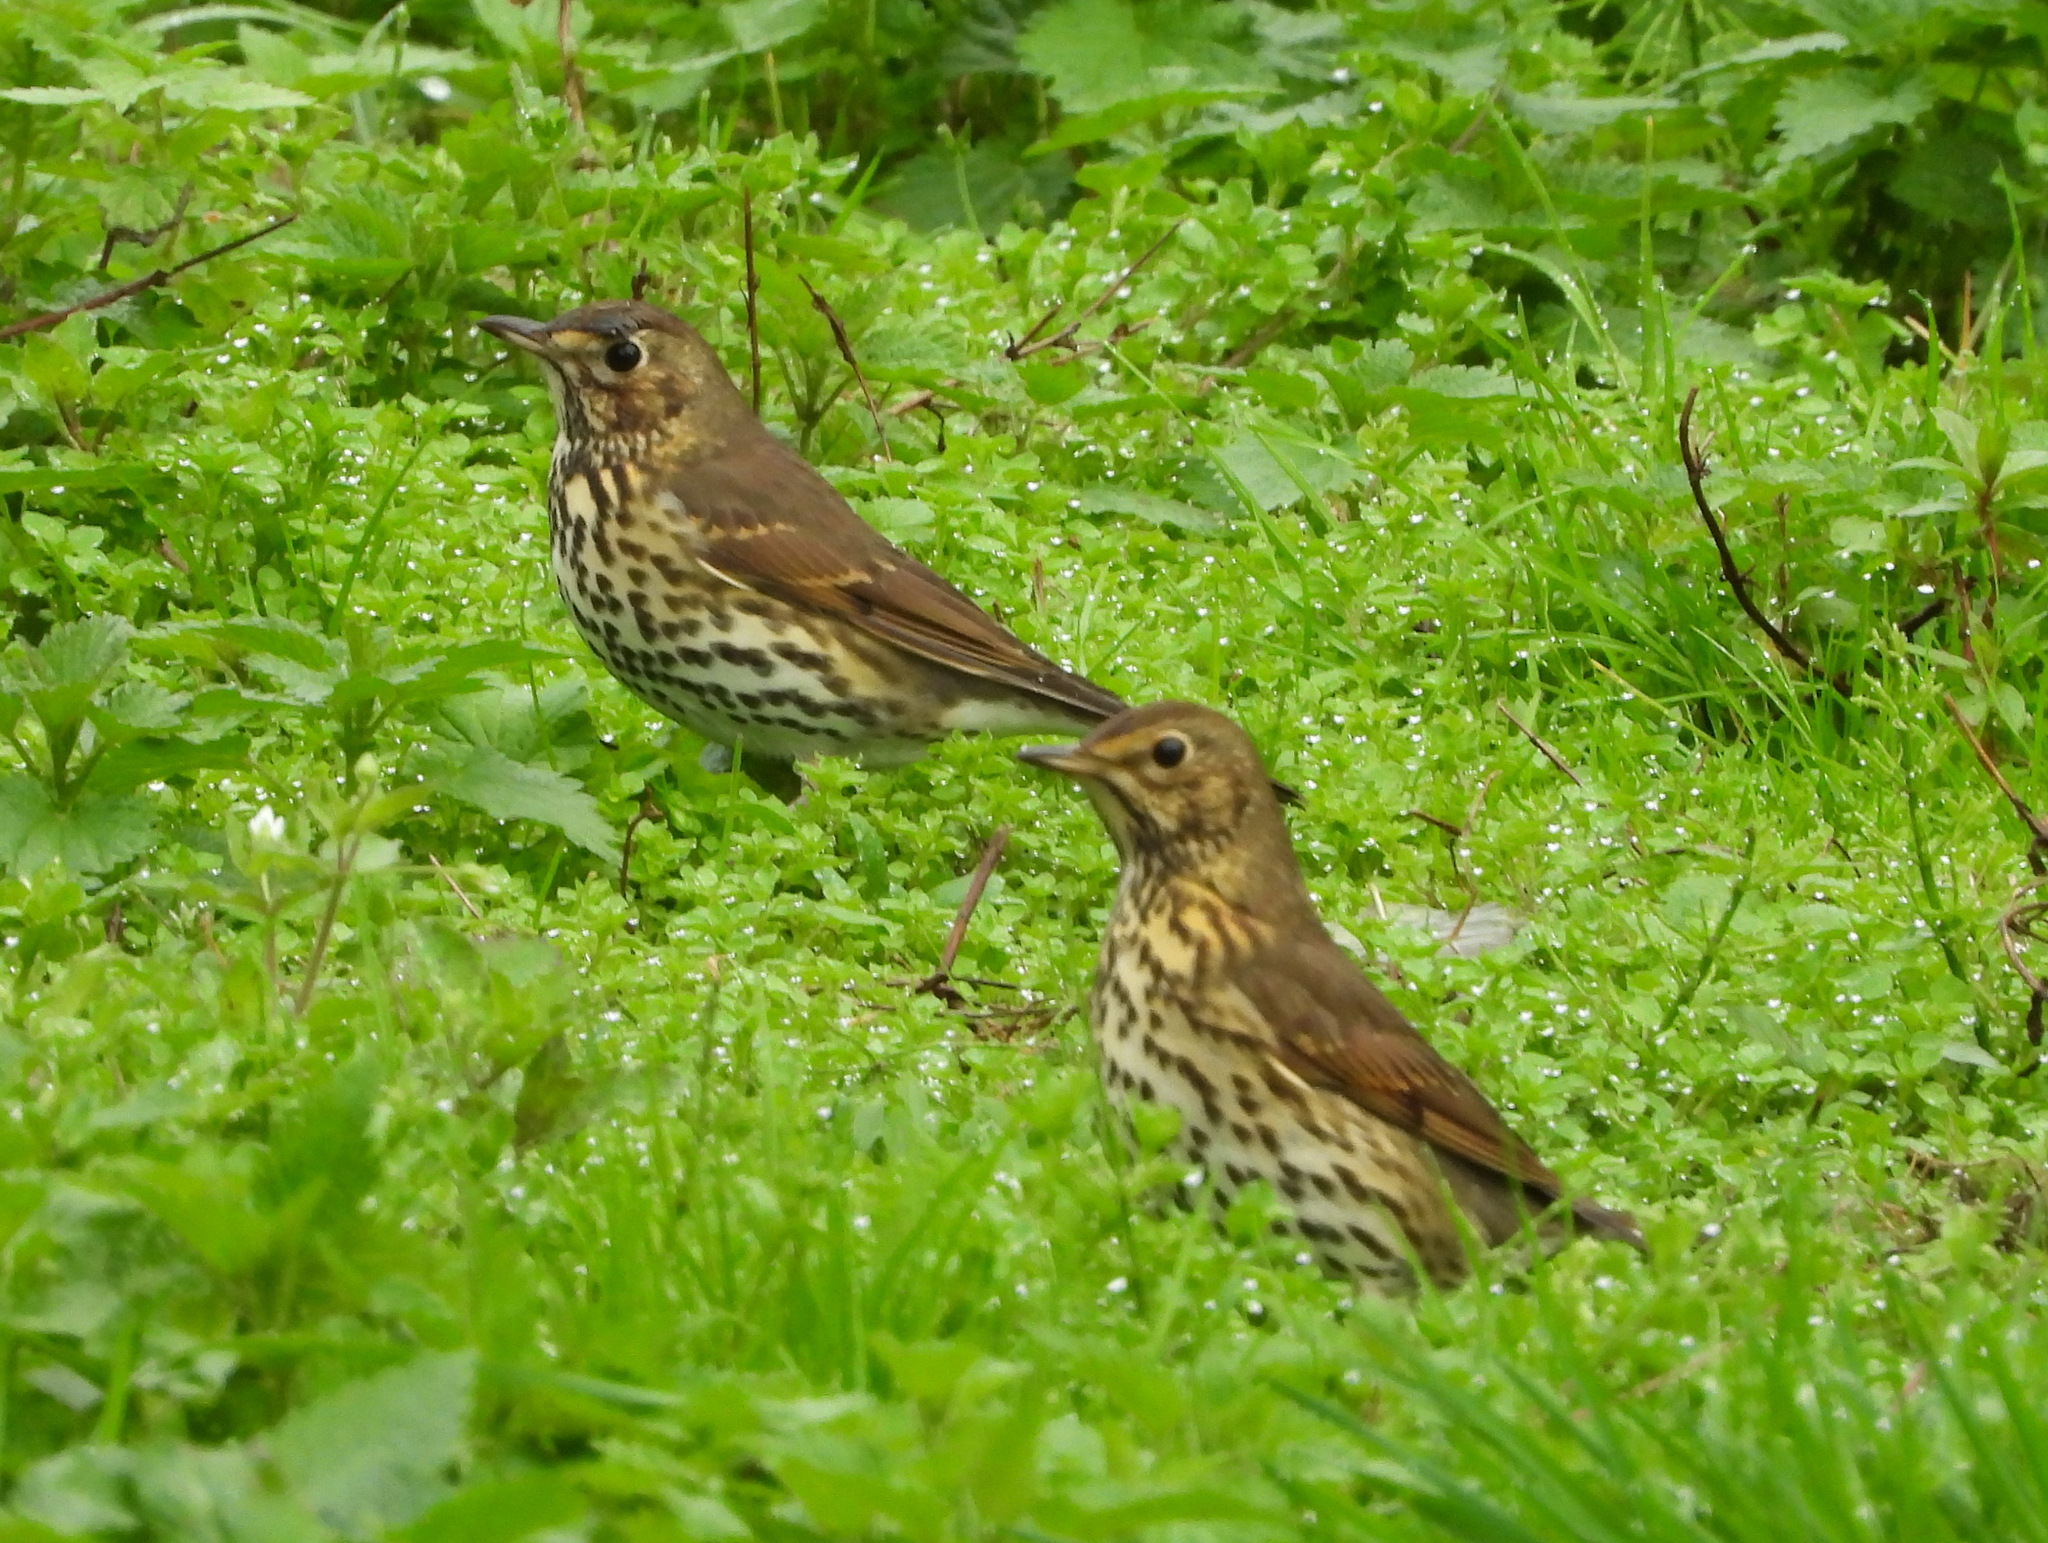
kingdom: Animalia
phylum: Chordata
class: Aves
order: Passeriformes
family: Turdidae
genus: Turdus
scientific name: Turdus philomelos
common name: Song thrush
